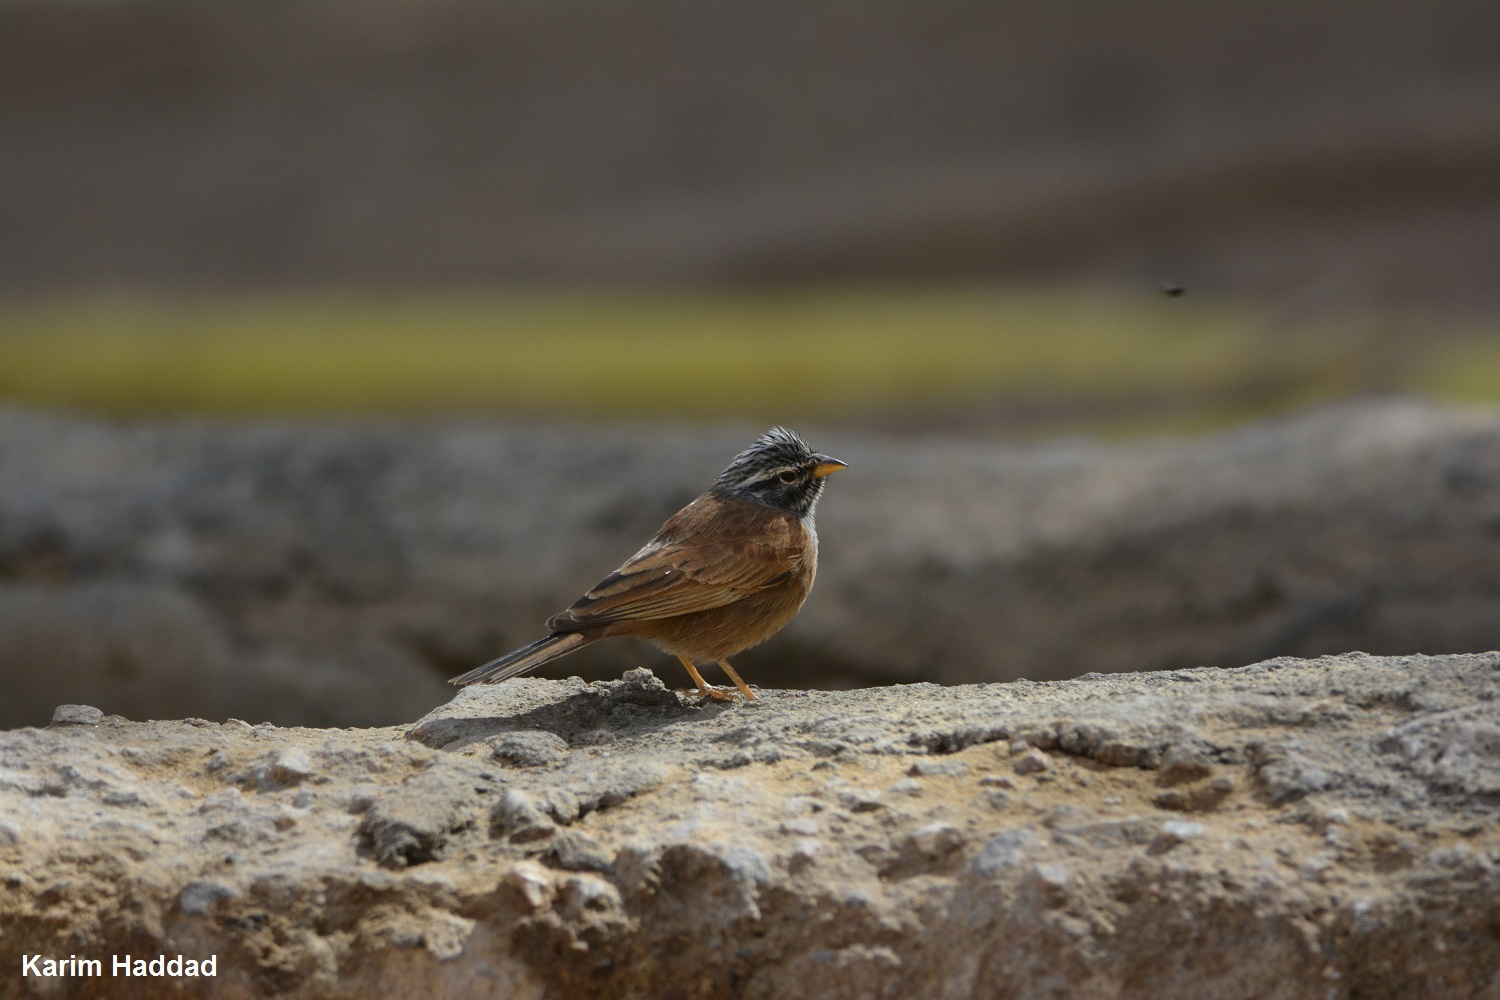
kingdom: Animalia
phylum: Chordata
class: Aves
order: Passeriformes
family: Emberizidae
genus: Emberiza
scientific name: Emberiza sahari
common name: House bunting
